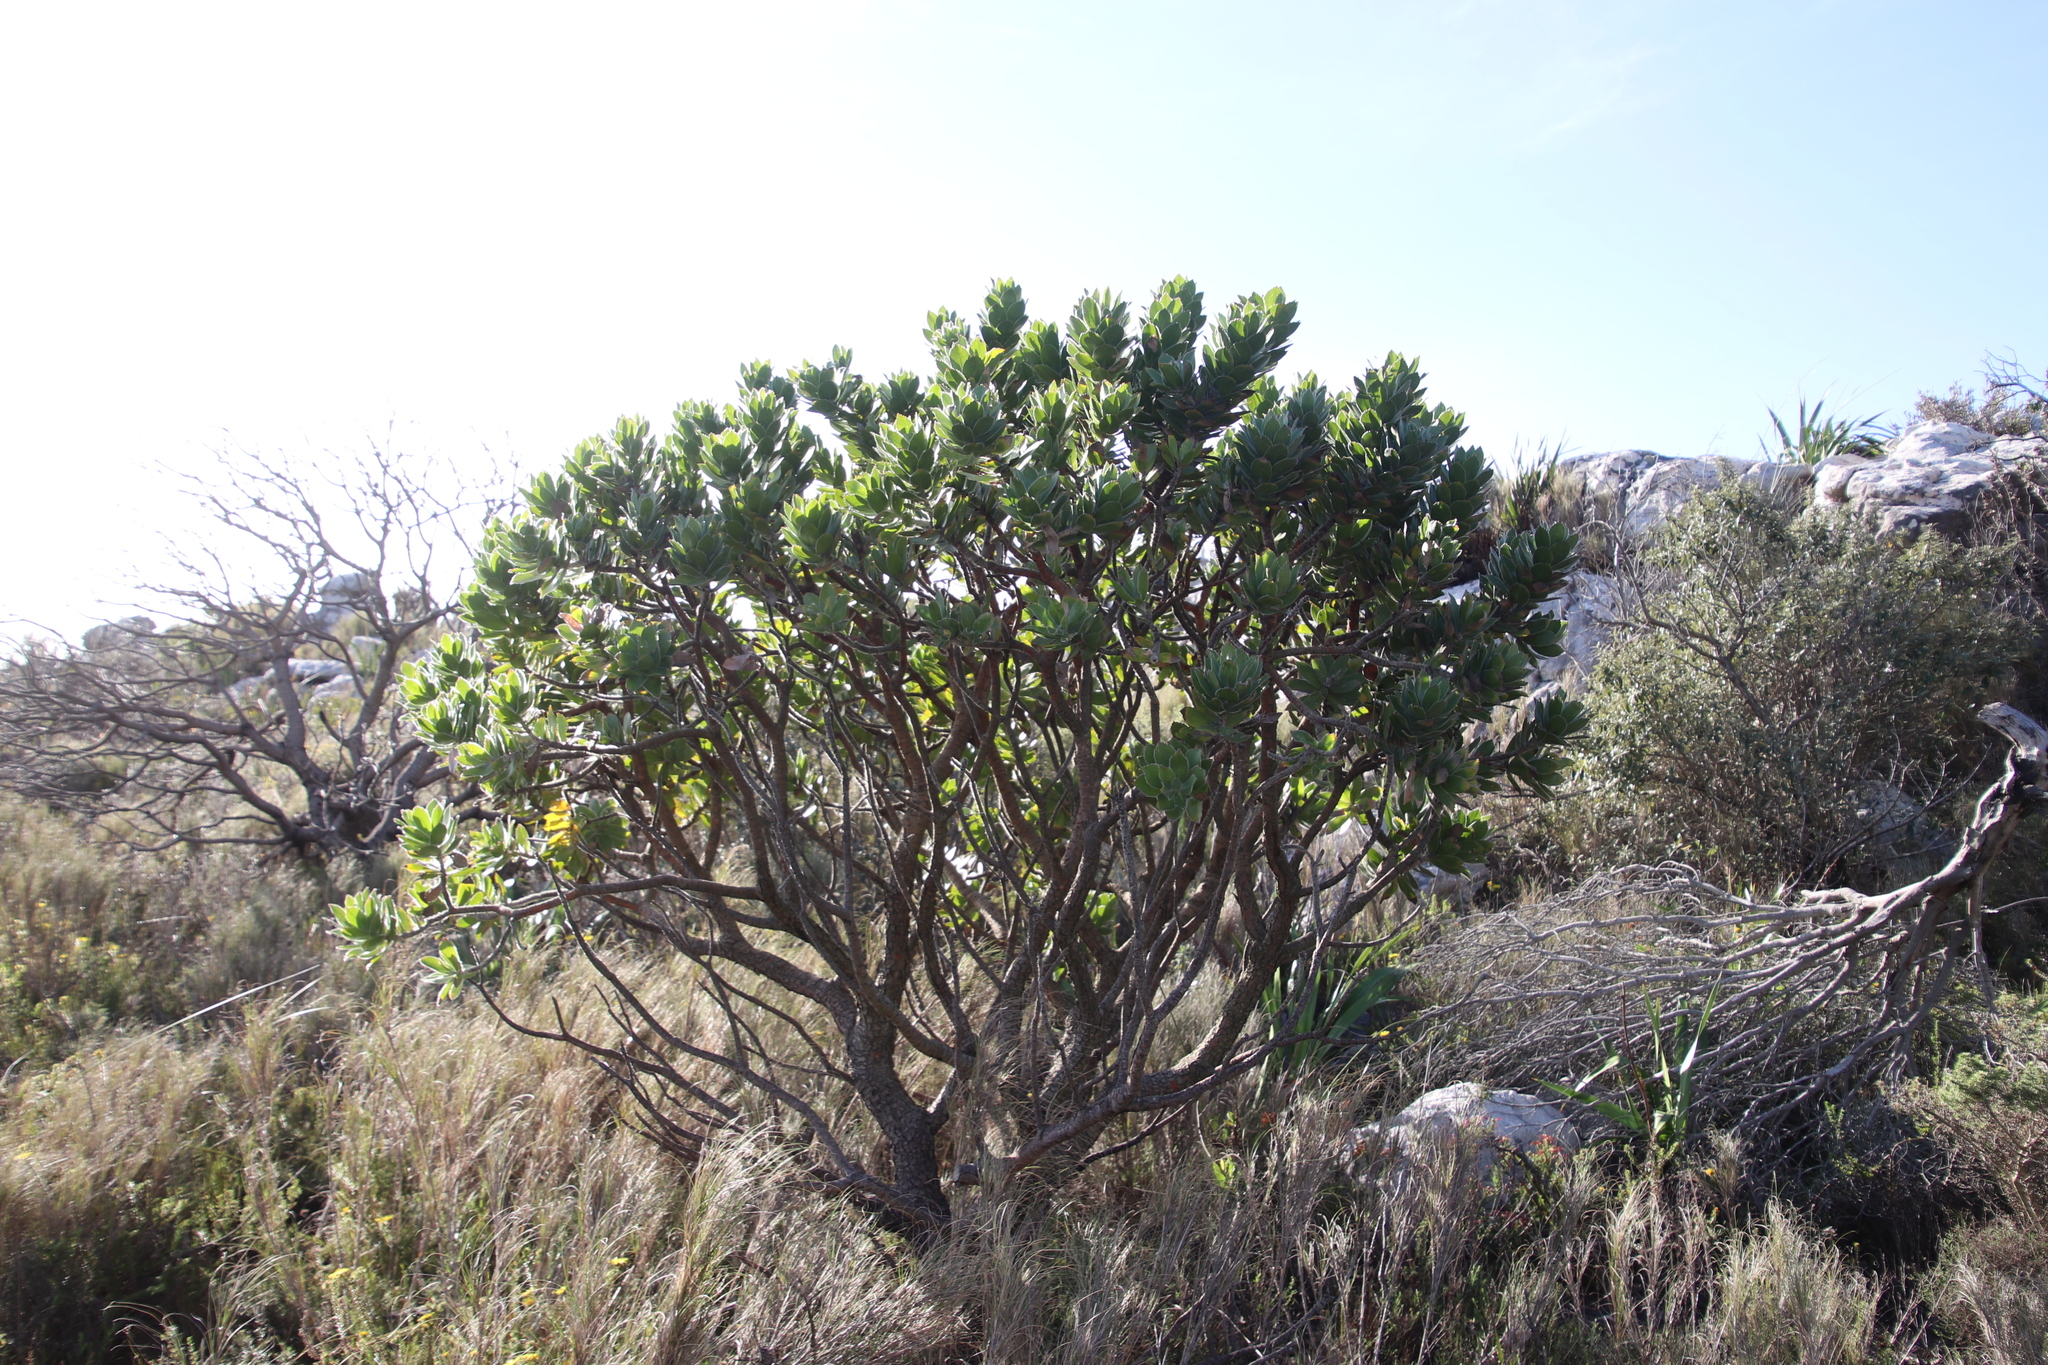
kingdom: Plantae
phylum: Tracheophyta
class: Magnoliopsida
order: Proteales
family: Proteaceae
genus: Leucospermum
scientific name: Leucospermum conocarpodendron
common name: Tree pincushion
